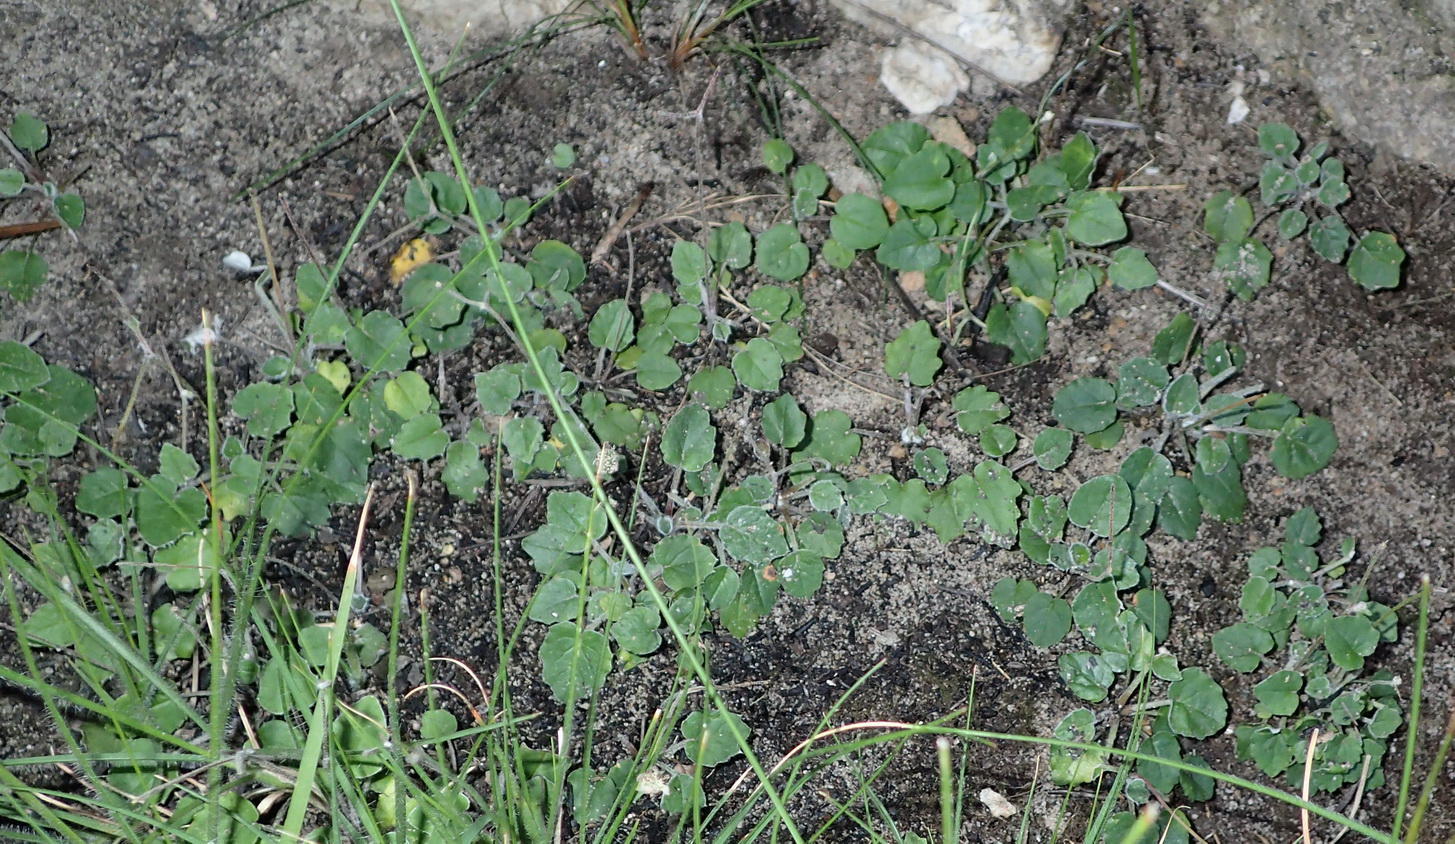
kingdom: Plantae
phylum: Tracheophyta
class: Magnoliopsida
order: Apiales
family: Apiaceae
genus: Hermas
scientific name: Hermas capitata
